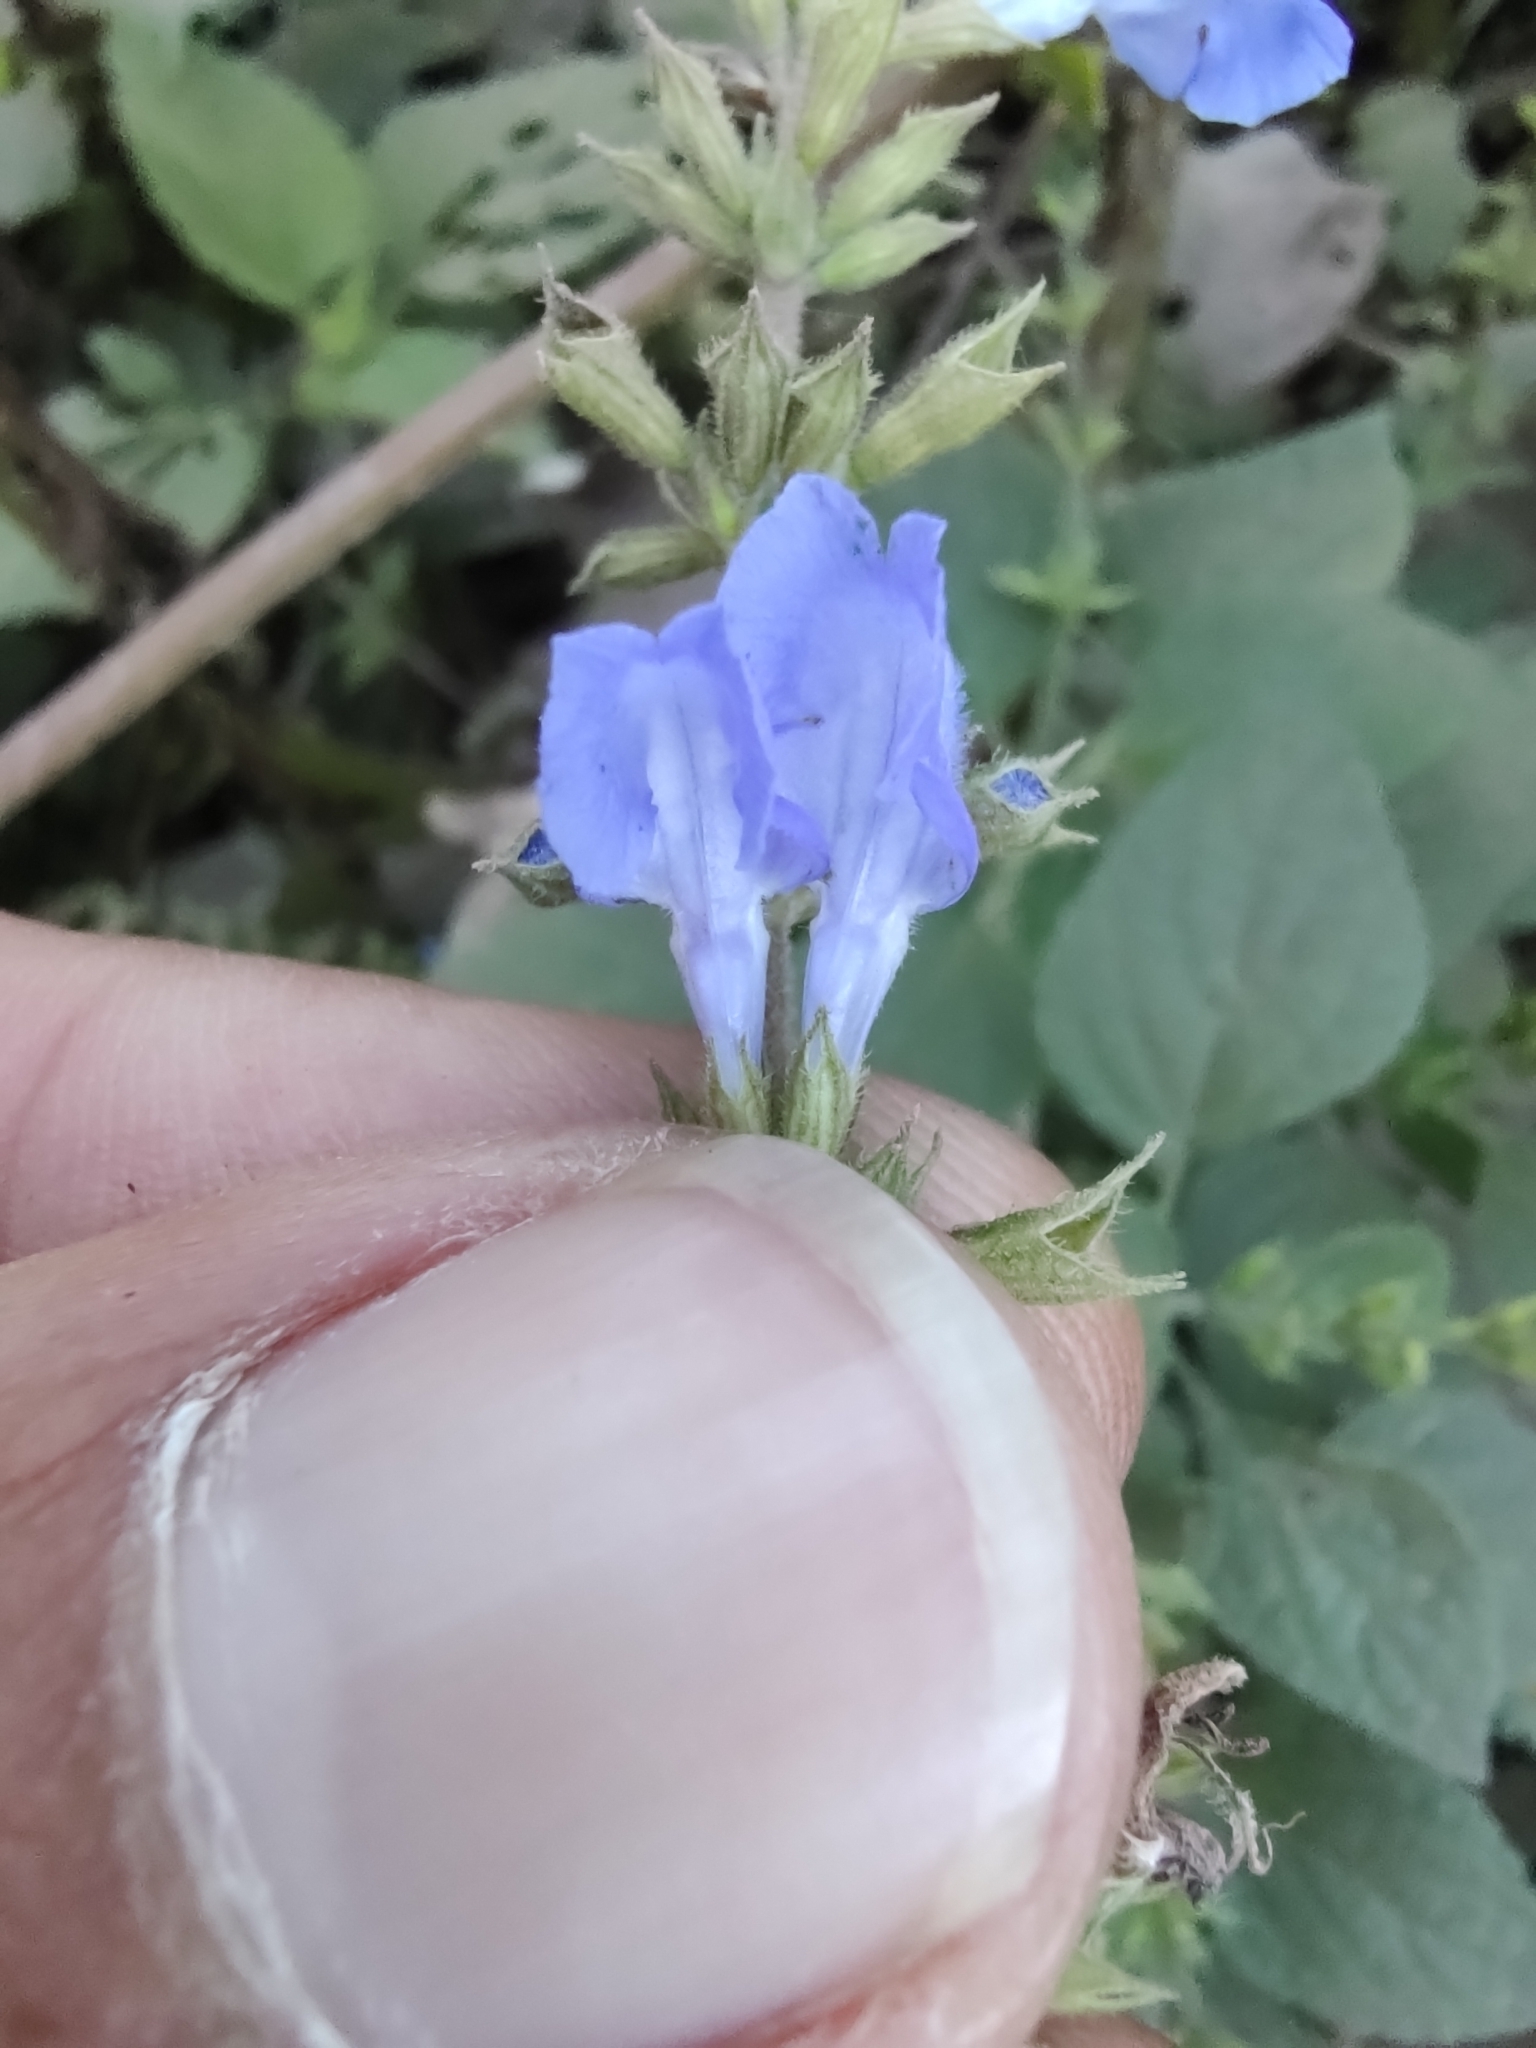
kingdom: Plantae
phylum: Tracheophyta
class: Magnoliopsida
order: Lamiales
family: Lamiaceae
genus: Salvia
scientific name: Salvia longispicata
